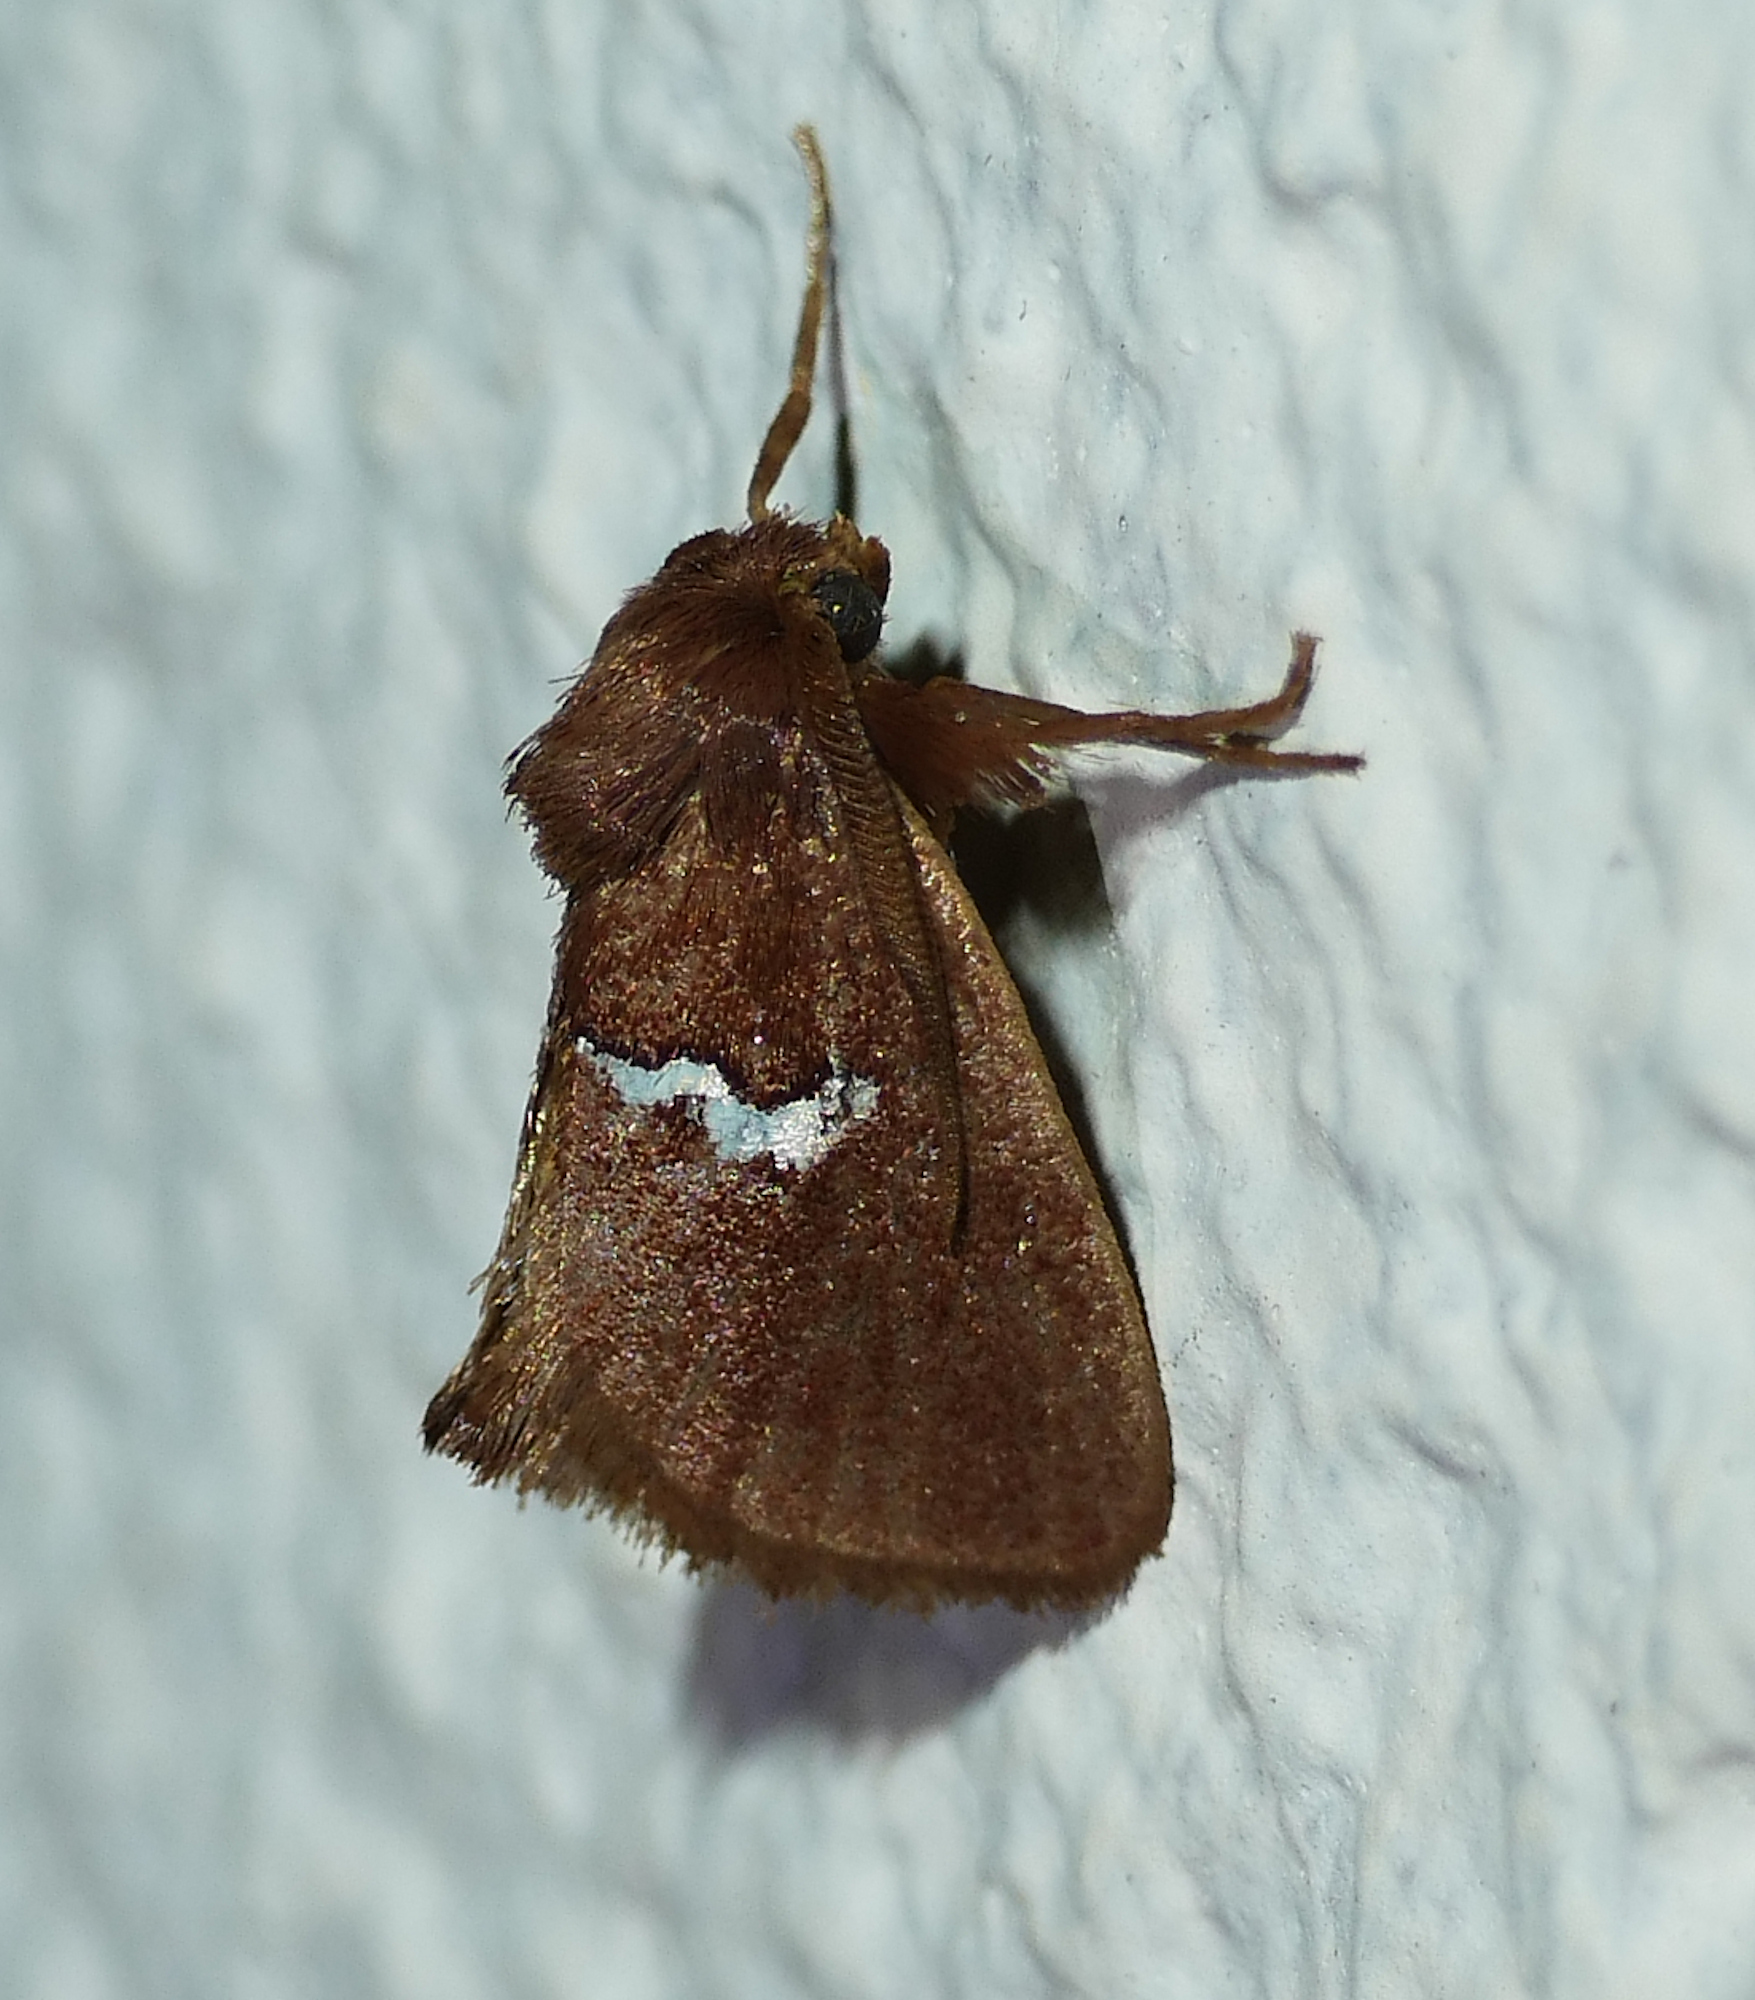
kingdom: Animalia
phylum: Arthropoda
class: Insecta
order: Lepidoptera
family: Limacodidae
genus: Monoleuca
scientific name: Monoleuca semifascia
